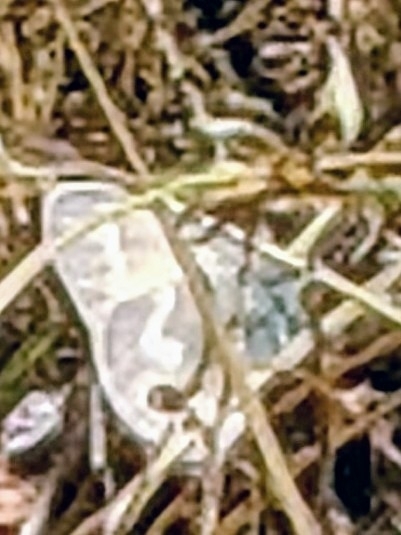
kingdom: Animalia
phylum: Arthropoda
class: Insecta
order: Lepidoptera
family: Nymphalidae
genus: Coenonympha
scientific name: Coenonympha california
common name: Common ringlet
